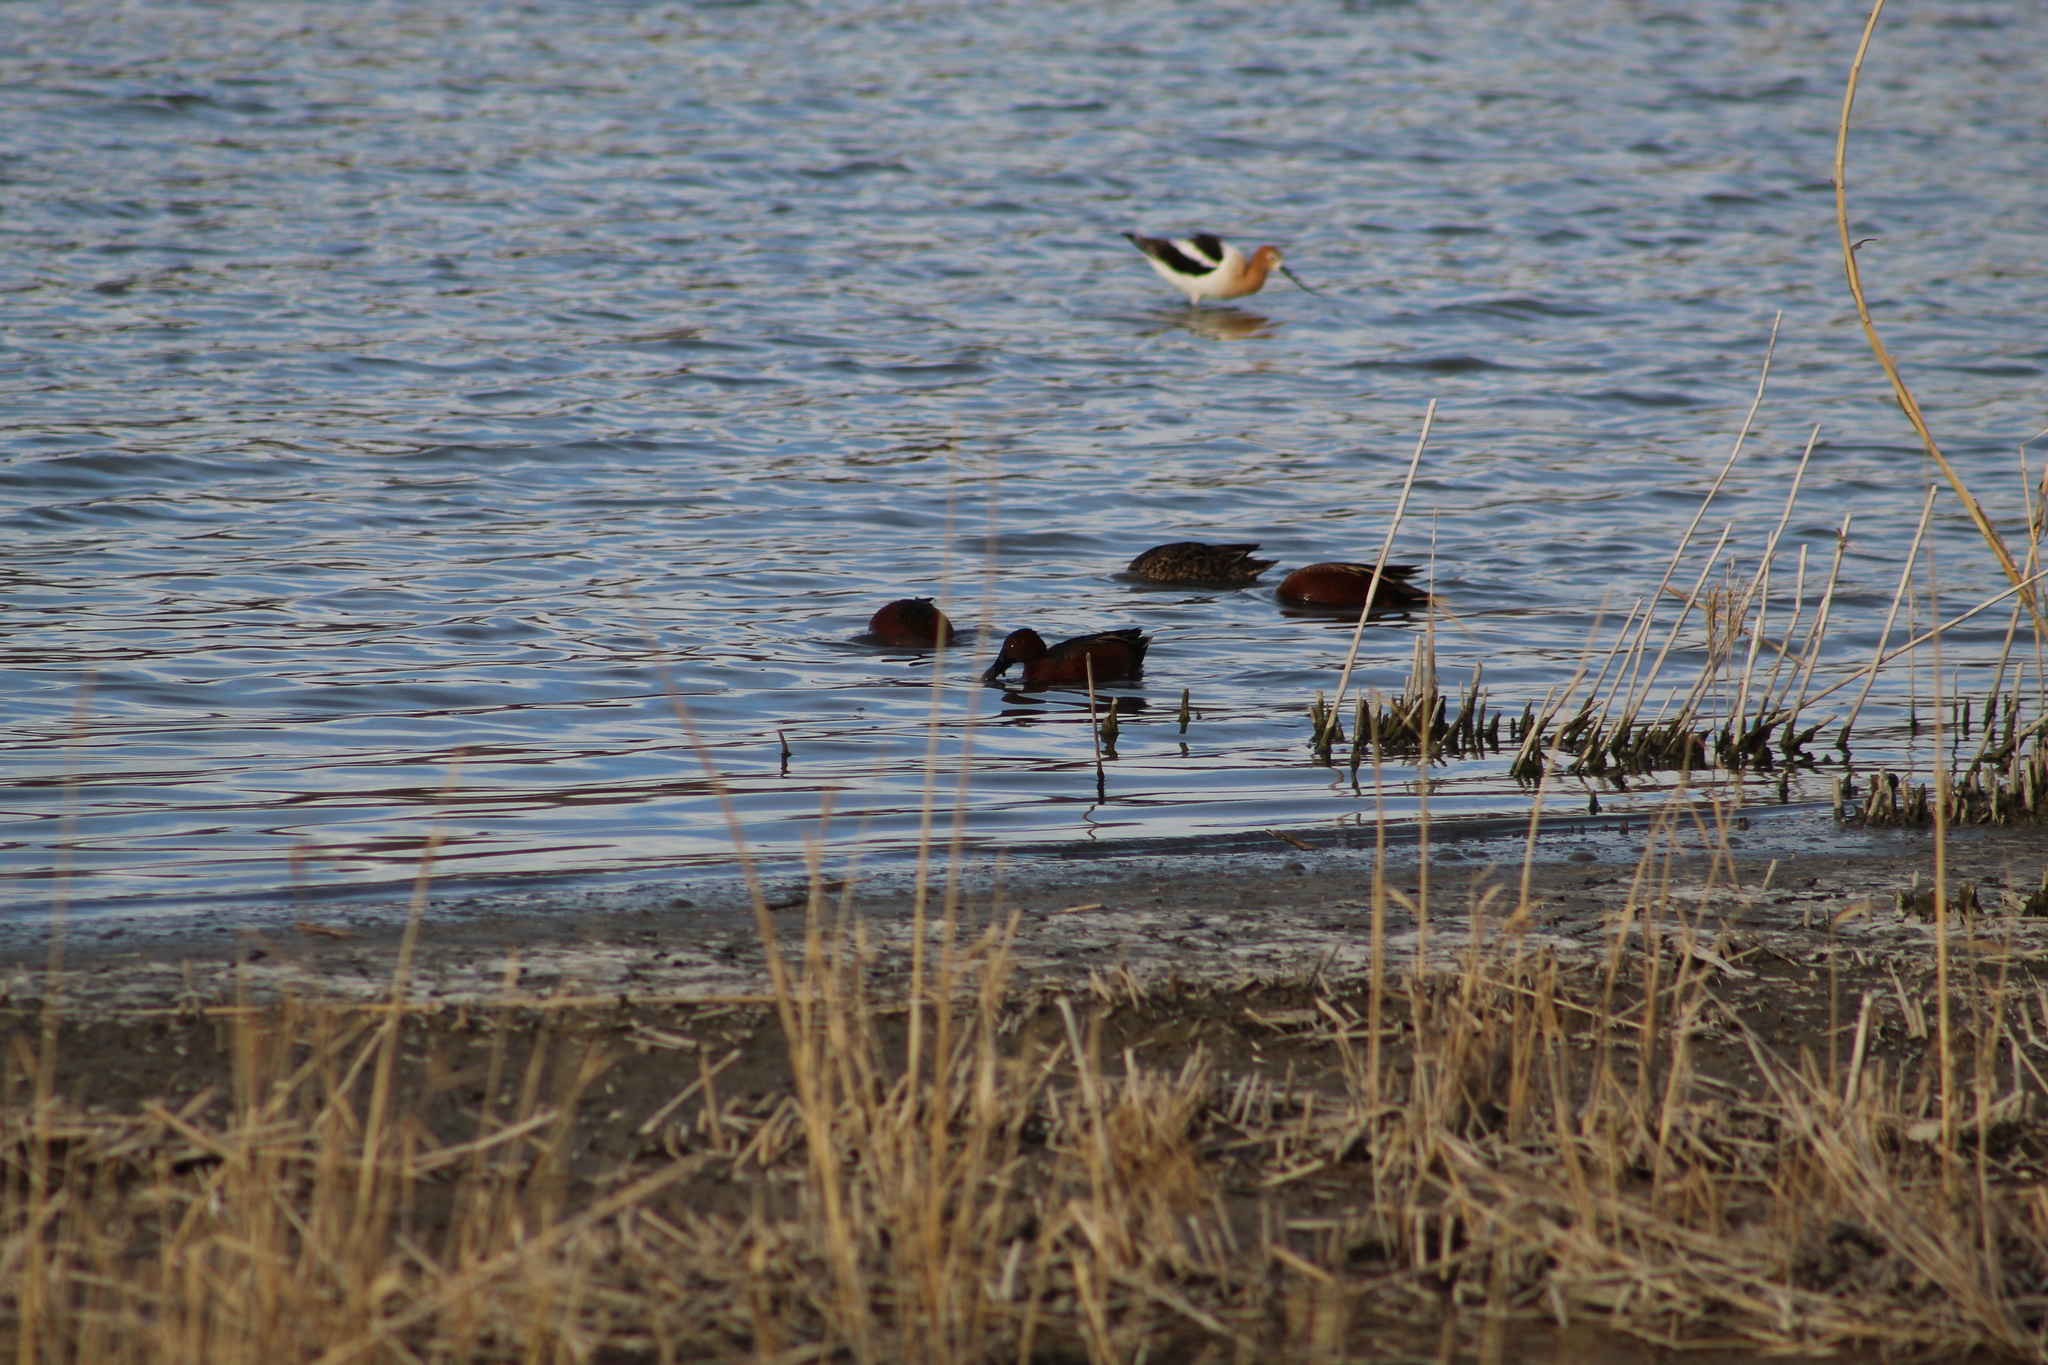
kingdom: Animalia
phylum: Chordata
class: Aves
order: Anseriformes
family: Anatidae
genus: Spatula
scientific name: Spatula cyanoptera
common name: Cinnamon teal
